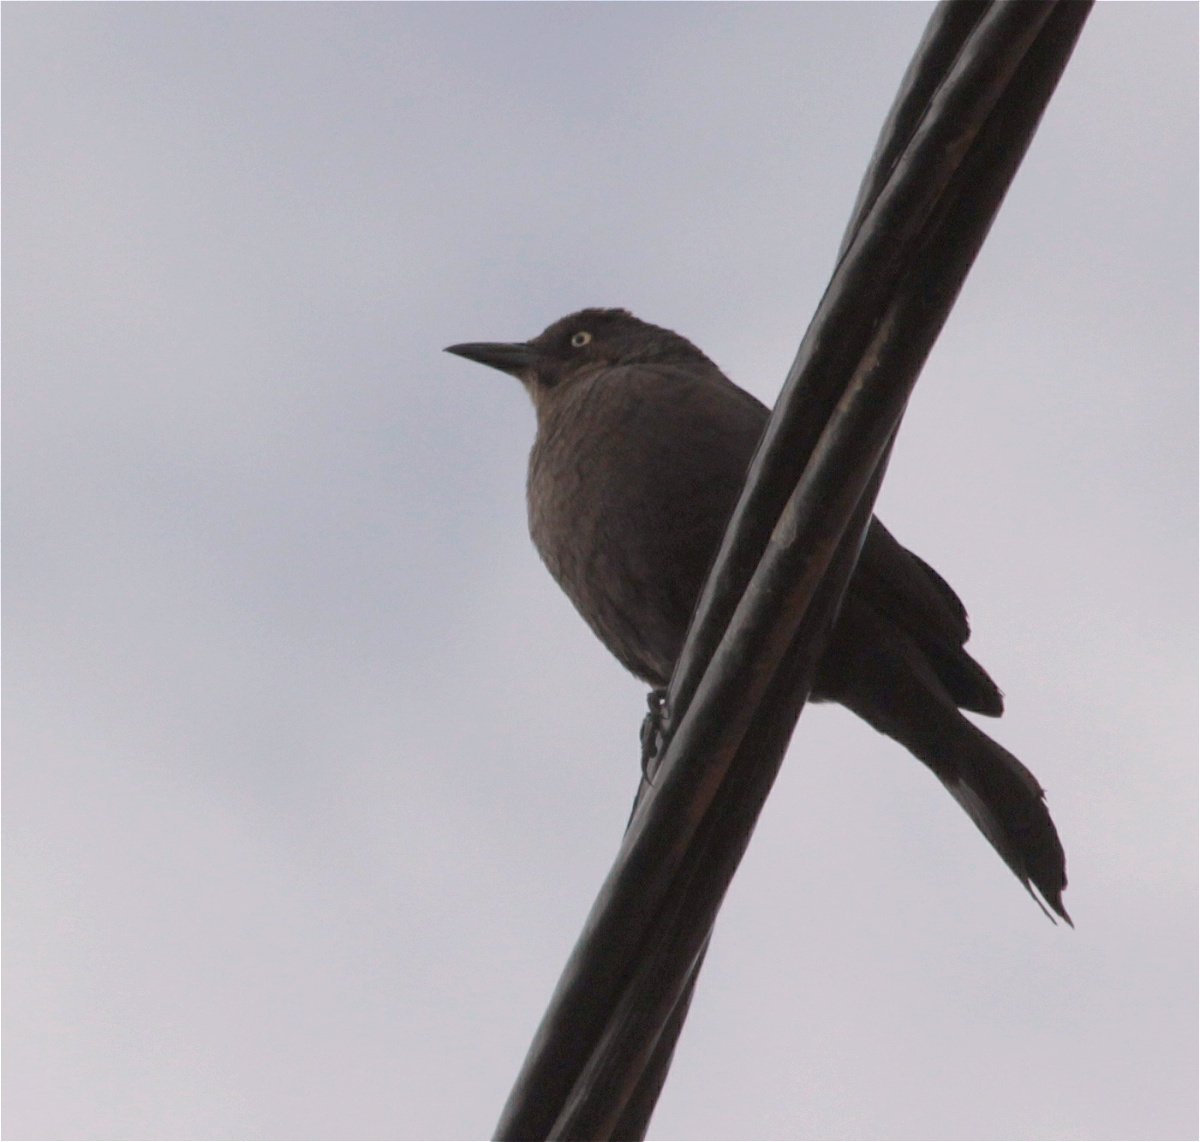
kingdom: Animalia
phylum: Chordata
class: Aves
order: Passeriformes
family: Icteridae
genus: Quiscalus
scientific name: Quiscalus lugubris
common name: Carib grackle
